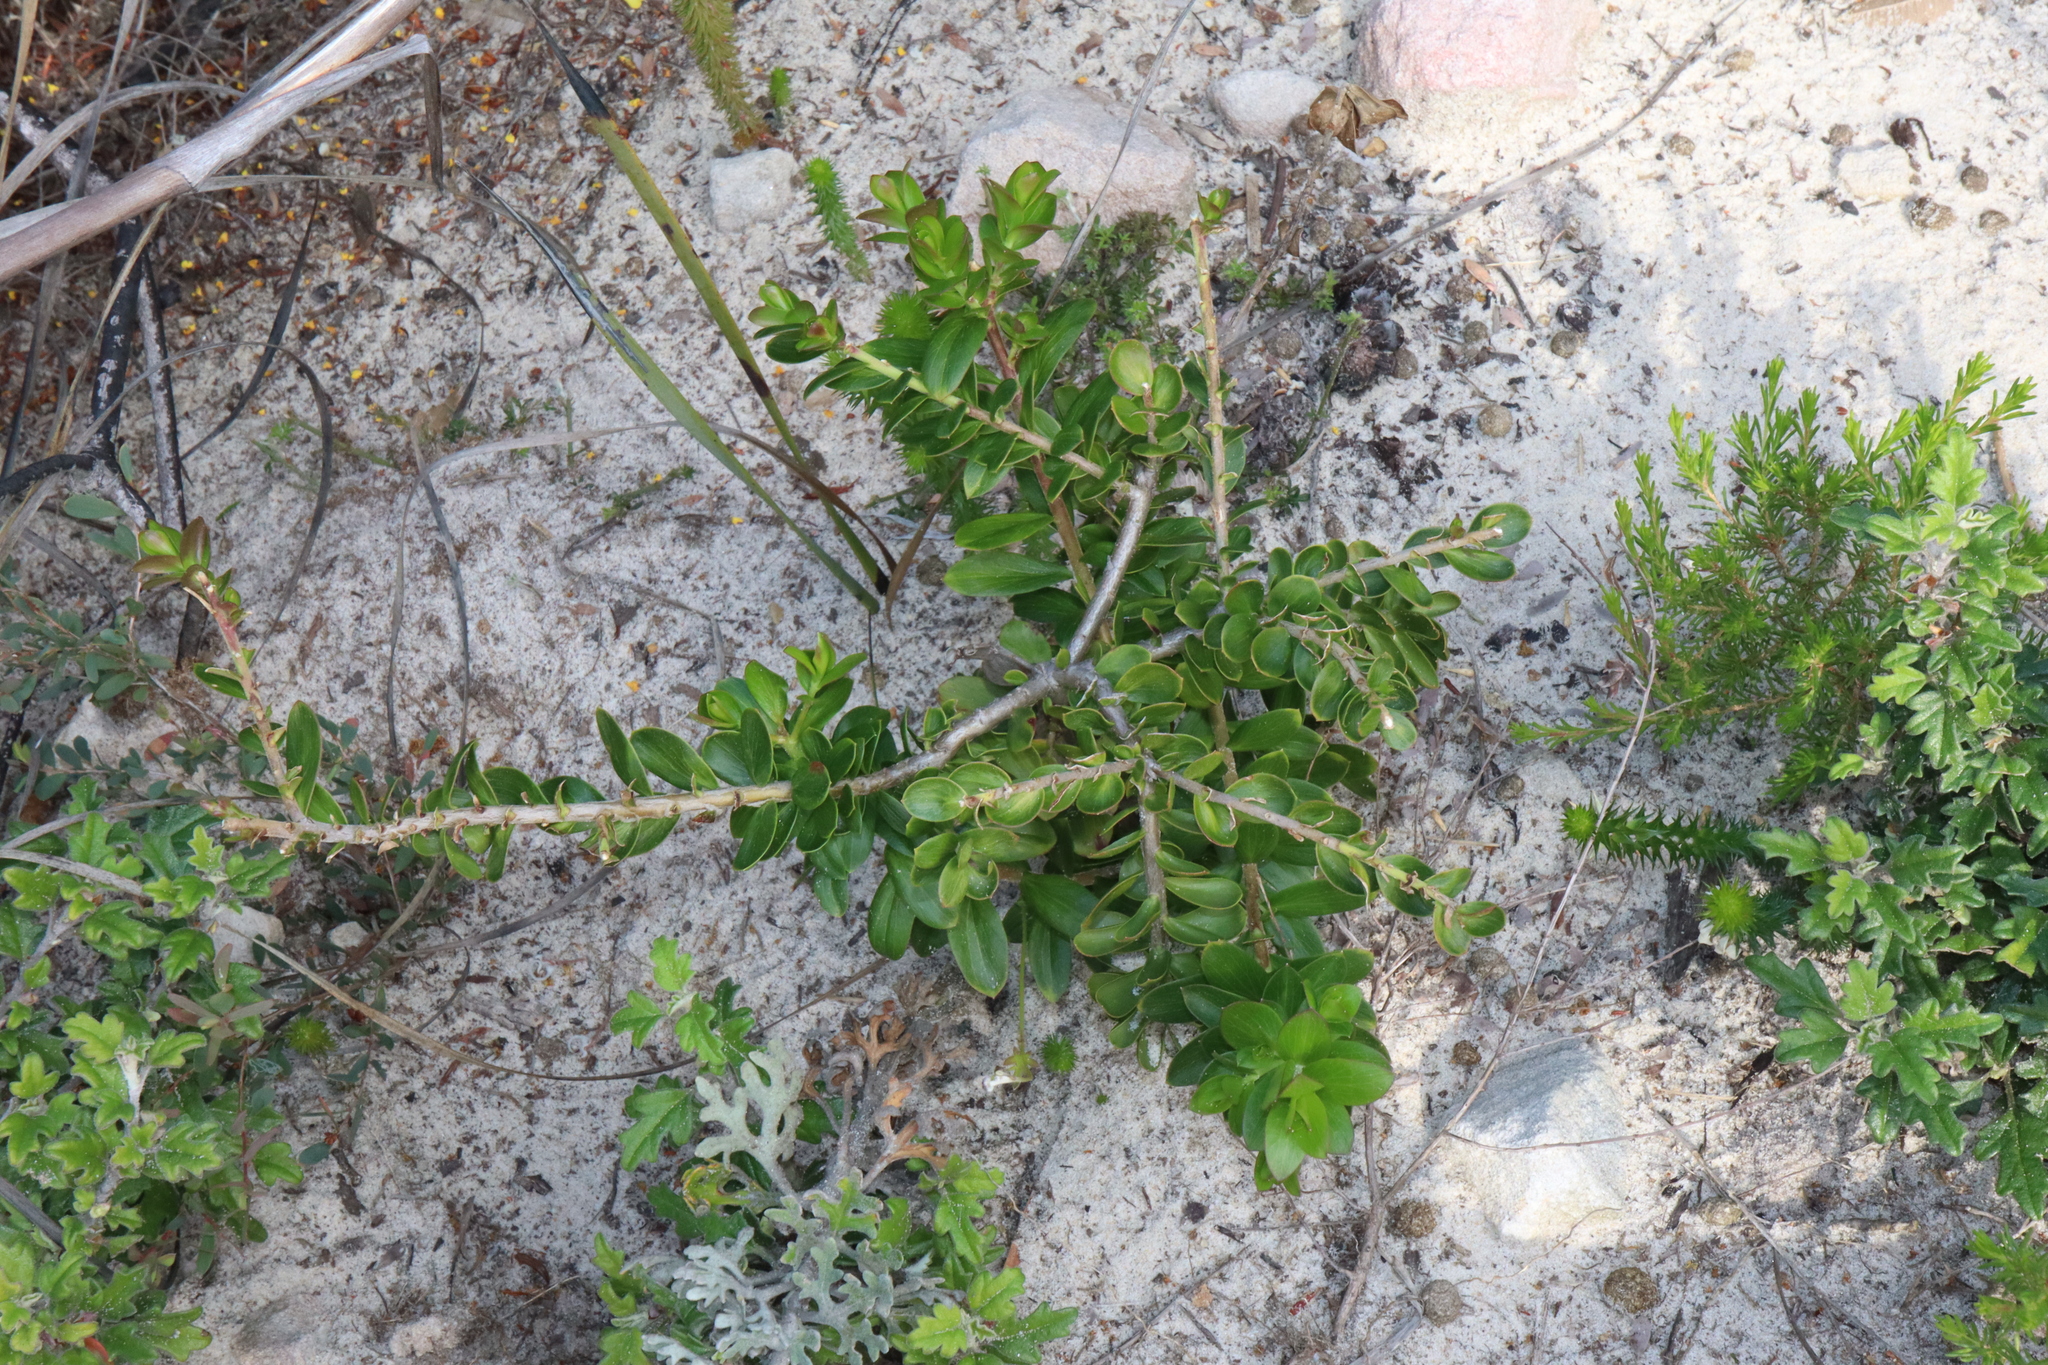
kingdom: Plantae
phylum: Tracheophyta
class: Magnoliopsida
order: Apiales
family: Apiaceae
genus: Platysace
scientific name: Platysace lanceolata
